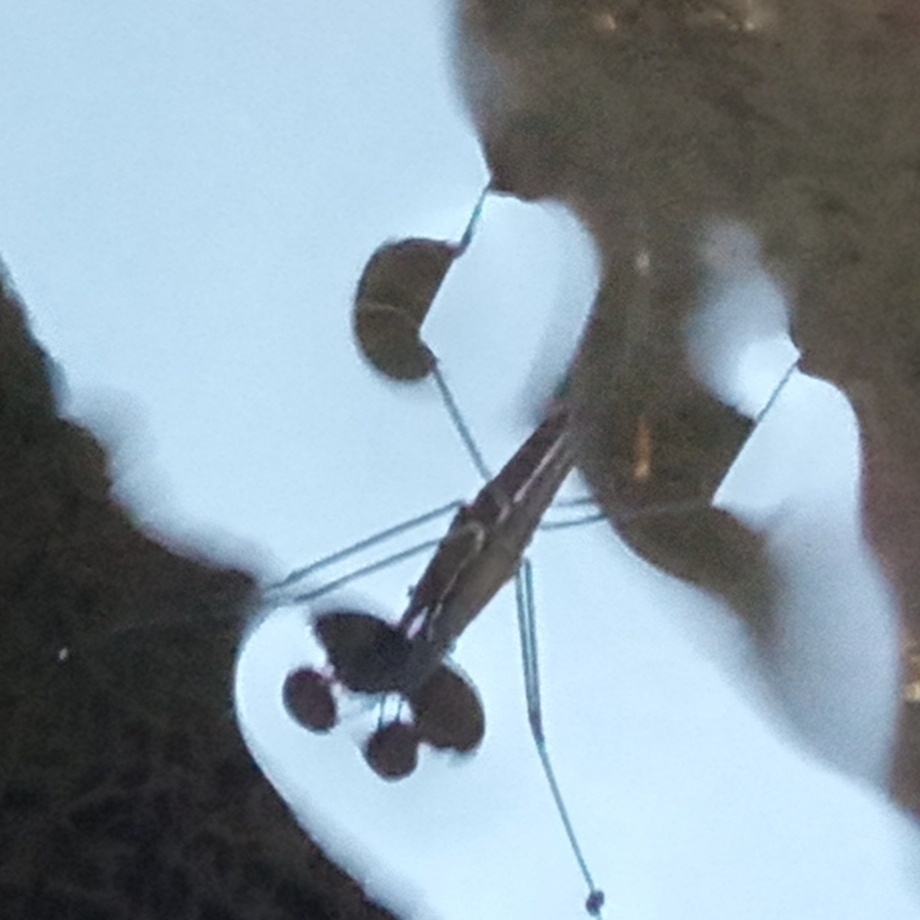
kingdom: Animalia
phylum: Arthropoda
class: Insecta
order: Hemiptera
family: Gerridae
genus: Aquarius
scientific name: Aquarius
